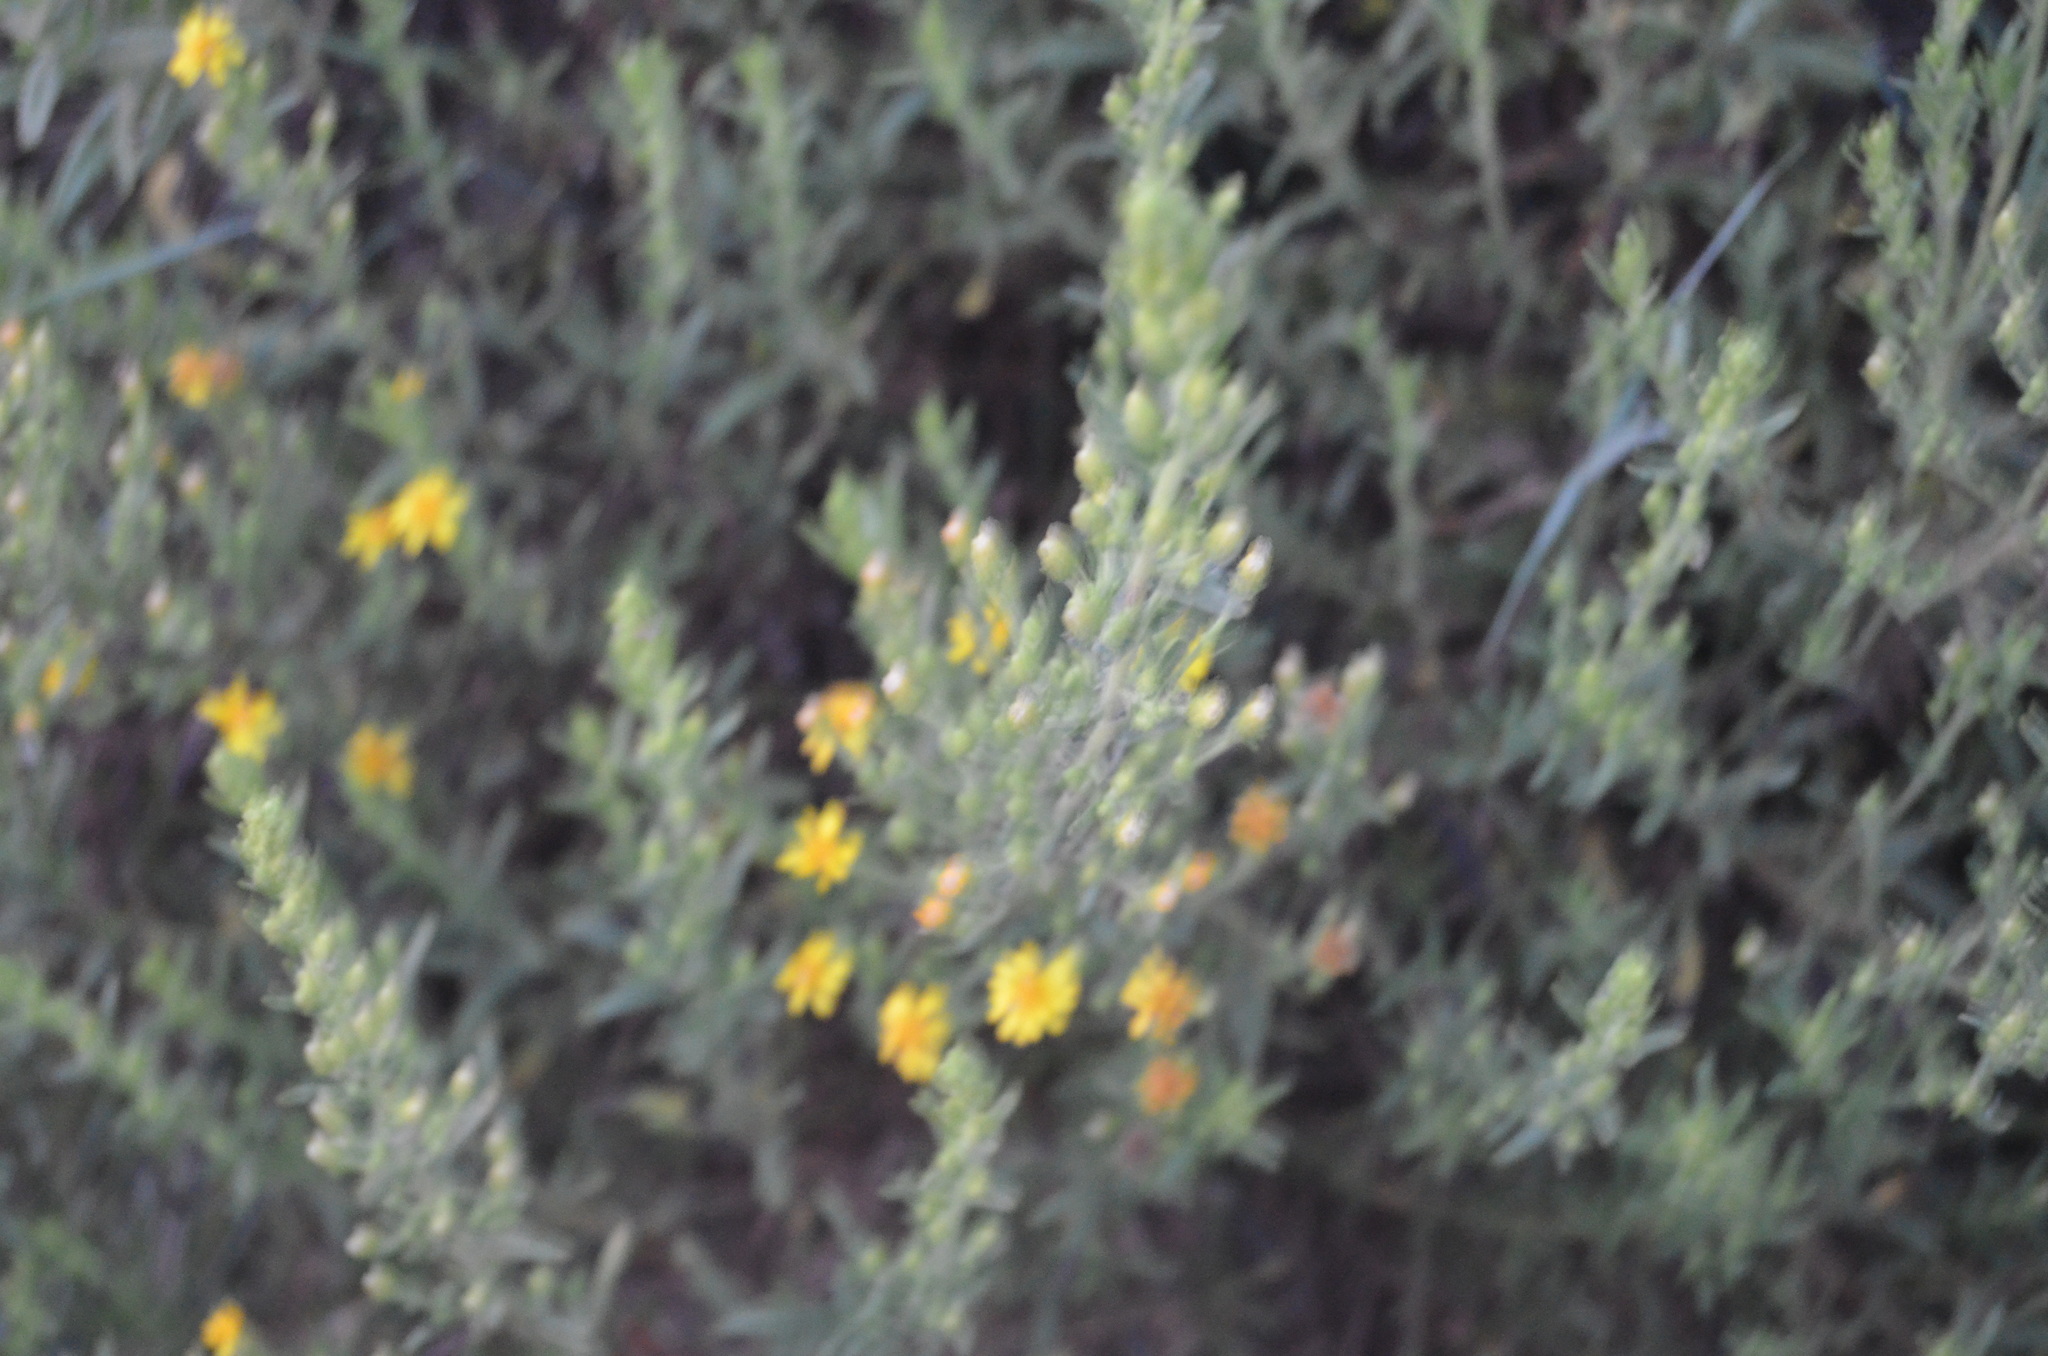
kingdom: Plantae
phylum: Tracheophyta
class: Magnoliopsida
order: Asterales
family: Asteraceae
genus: Dittrichia
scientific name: Dittrichia viscosa
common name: Woody fleabane
